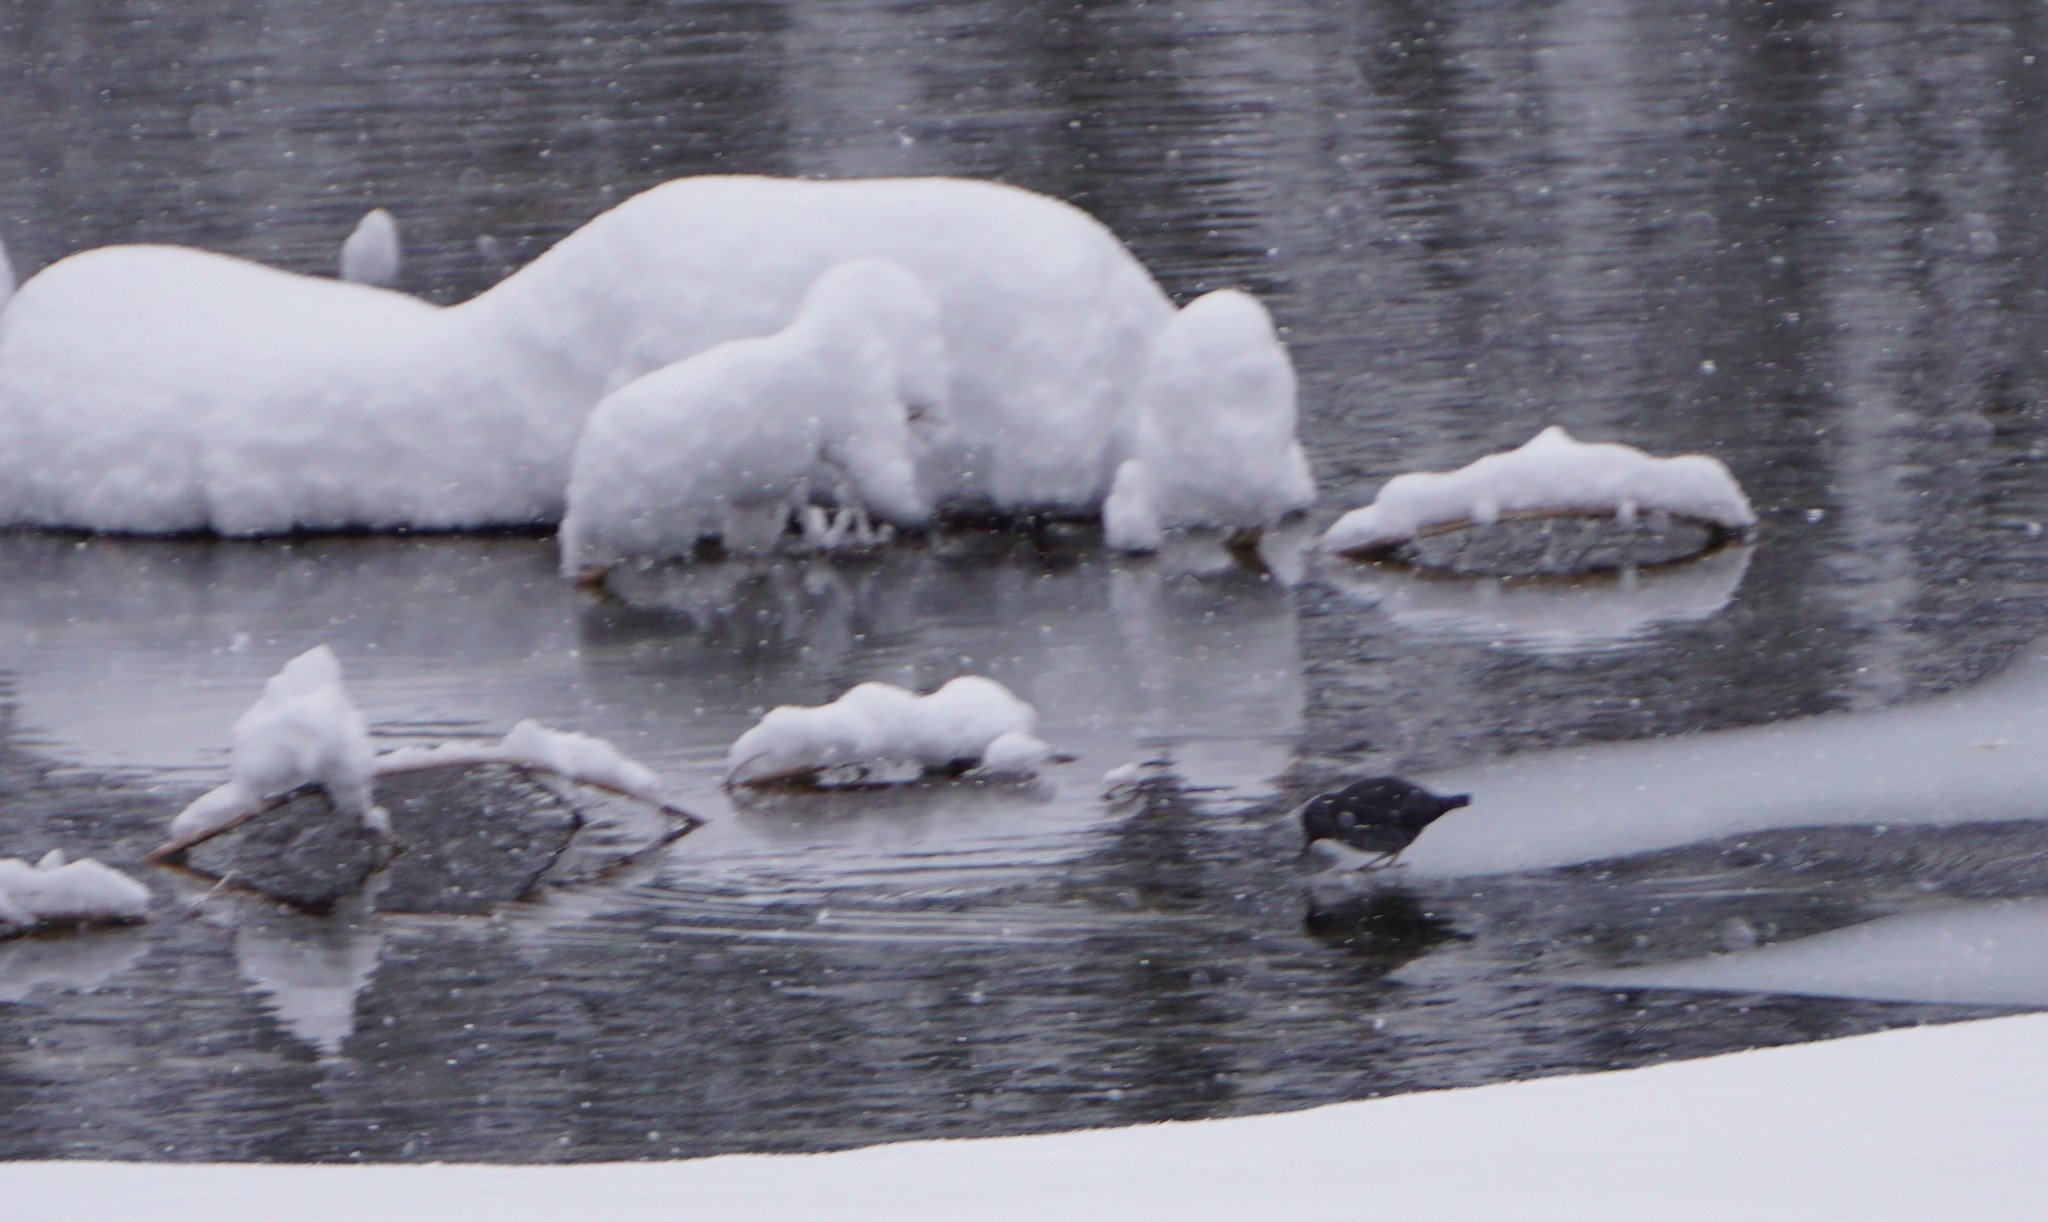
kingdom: Animalia
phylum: Chordata
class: Aves
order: Passeriformes
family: Cinclidae
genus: Cinclus
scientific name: Cinclus mexicanus
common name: American dipper
